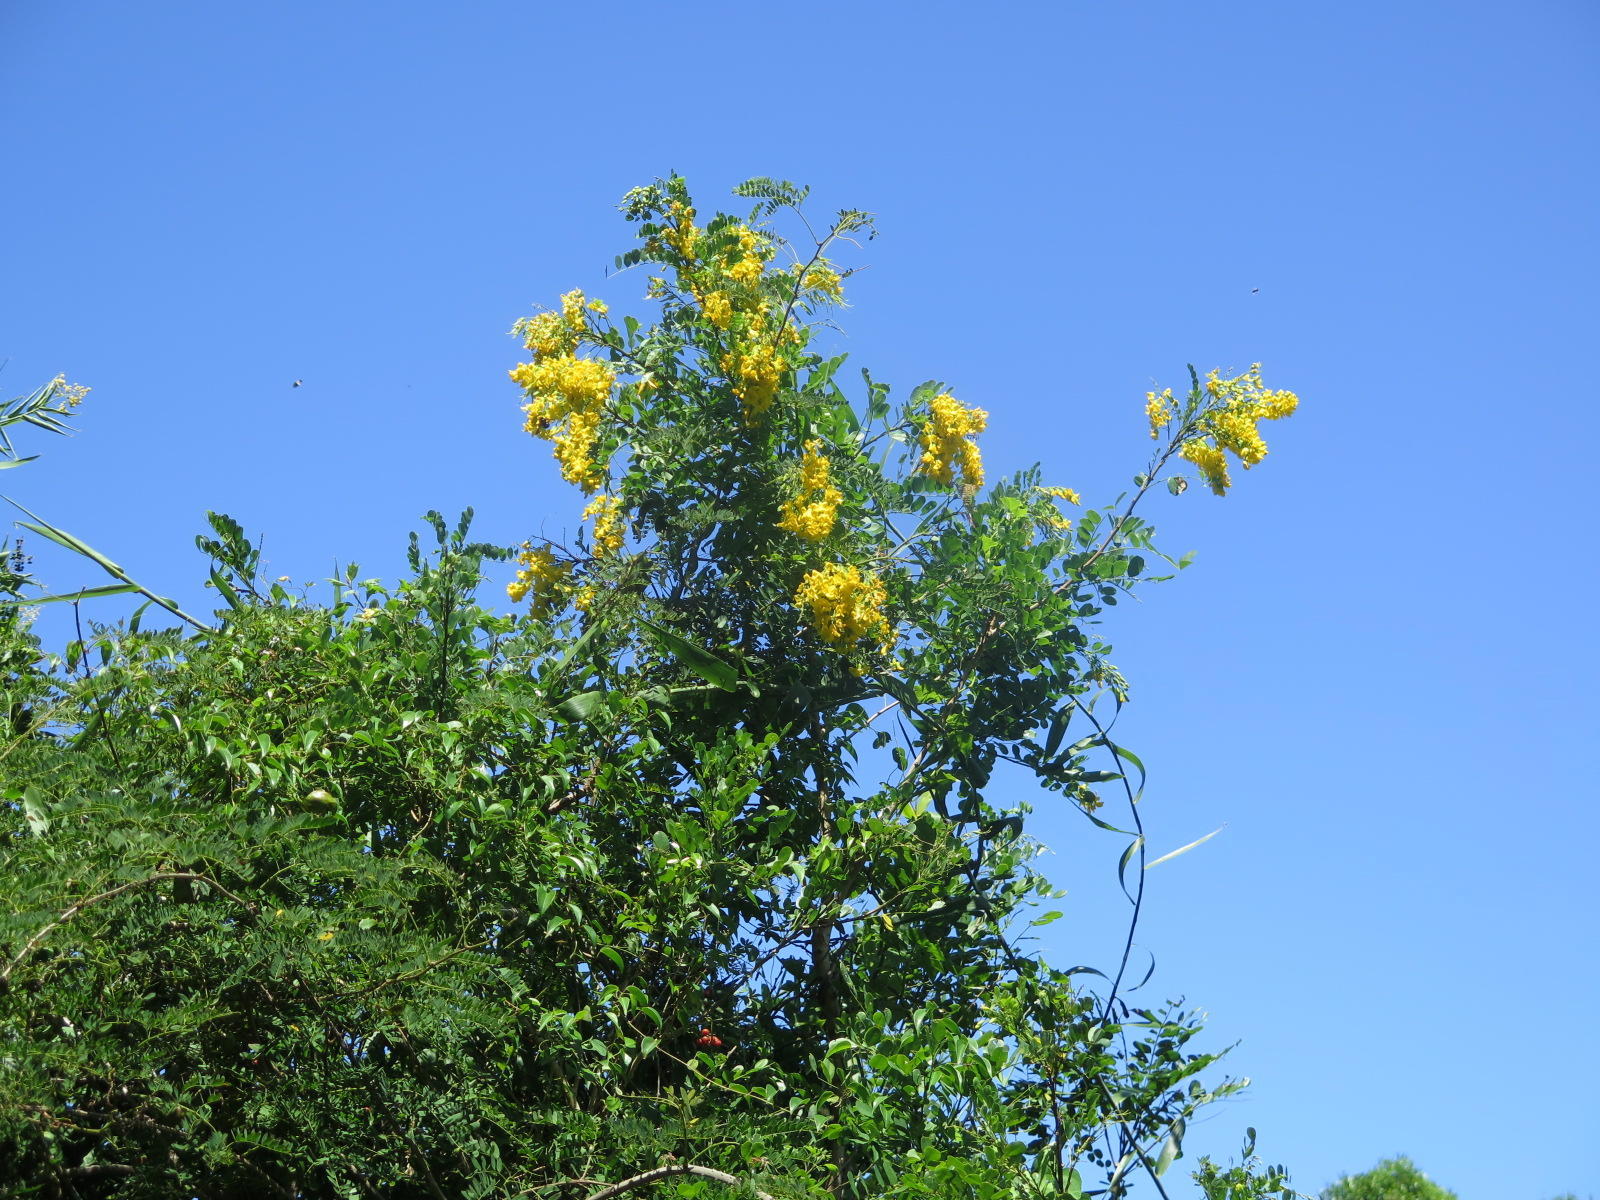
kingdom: Plantae
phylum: Tracheophyta
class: Magnoliopsida
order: Fabales
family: Fabaceae
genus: Calpurnia
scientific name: Calpurnia aurea
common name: Wild laburnum
